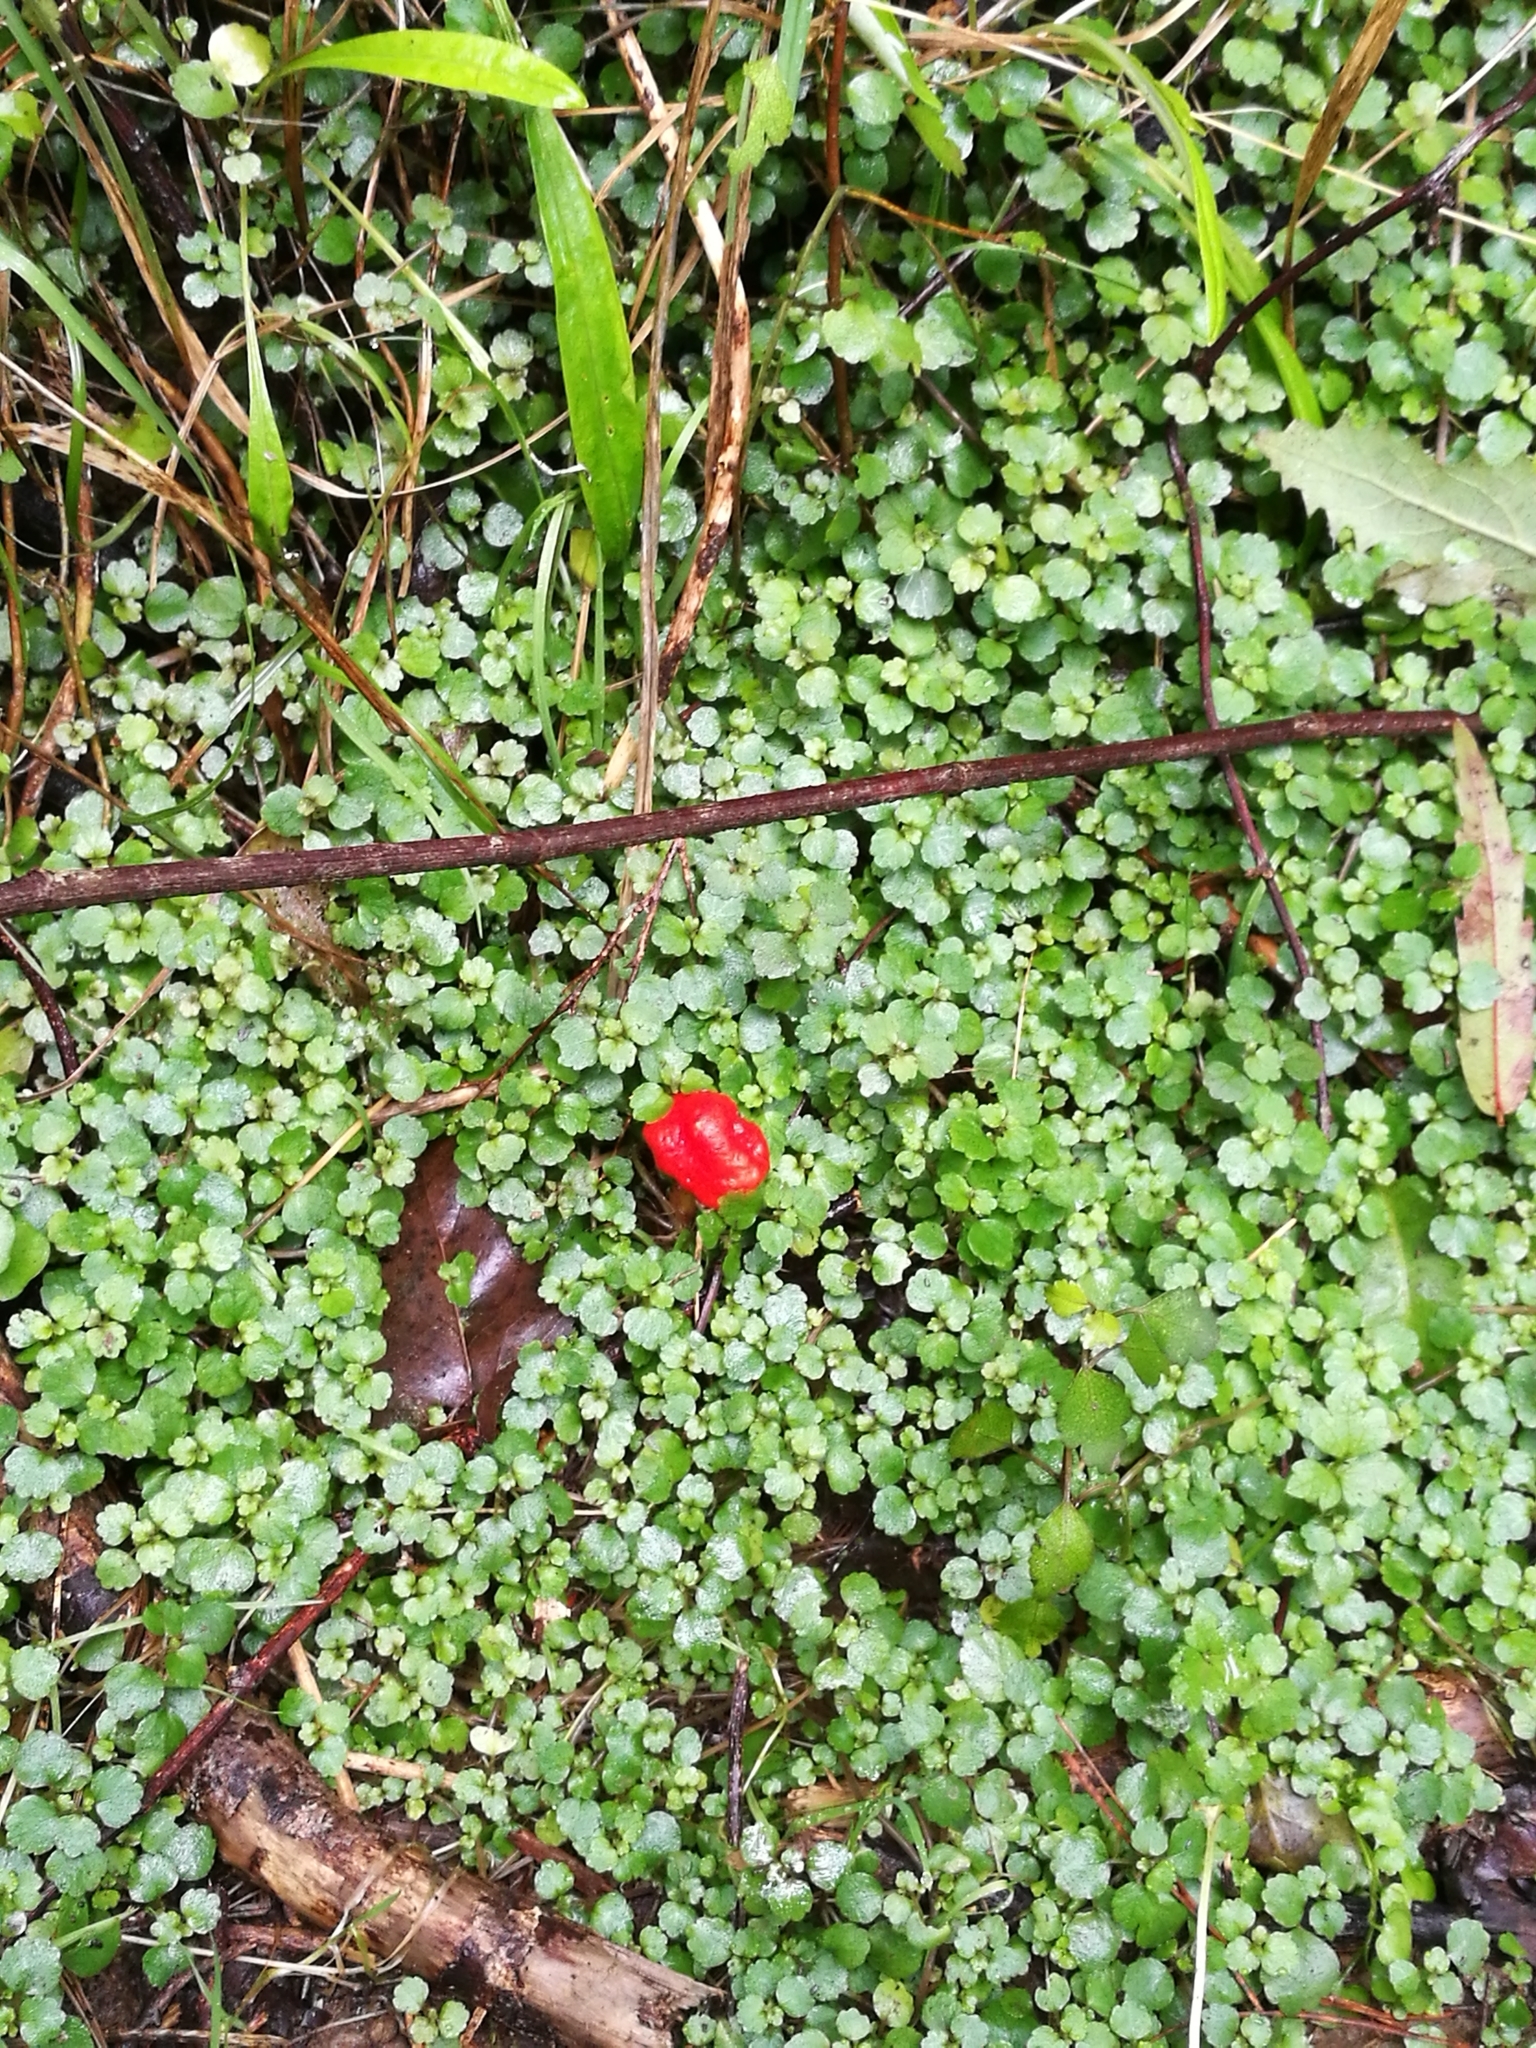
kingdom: Plantae
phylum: Tracheophyta
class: Magnoliopsida
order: Rosales
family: Urticaceae
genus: Australina
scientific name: Australina pusilla
